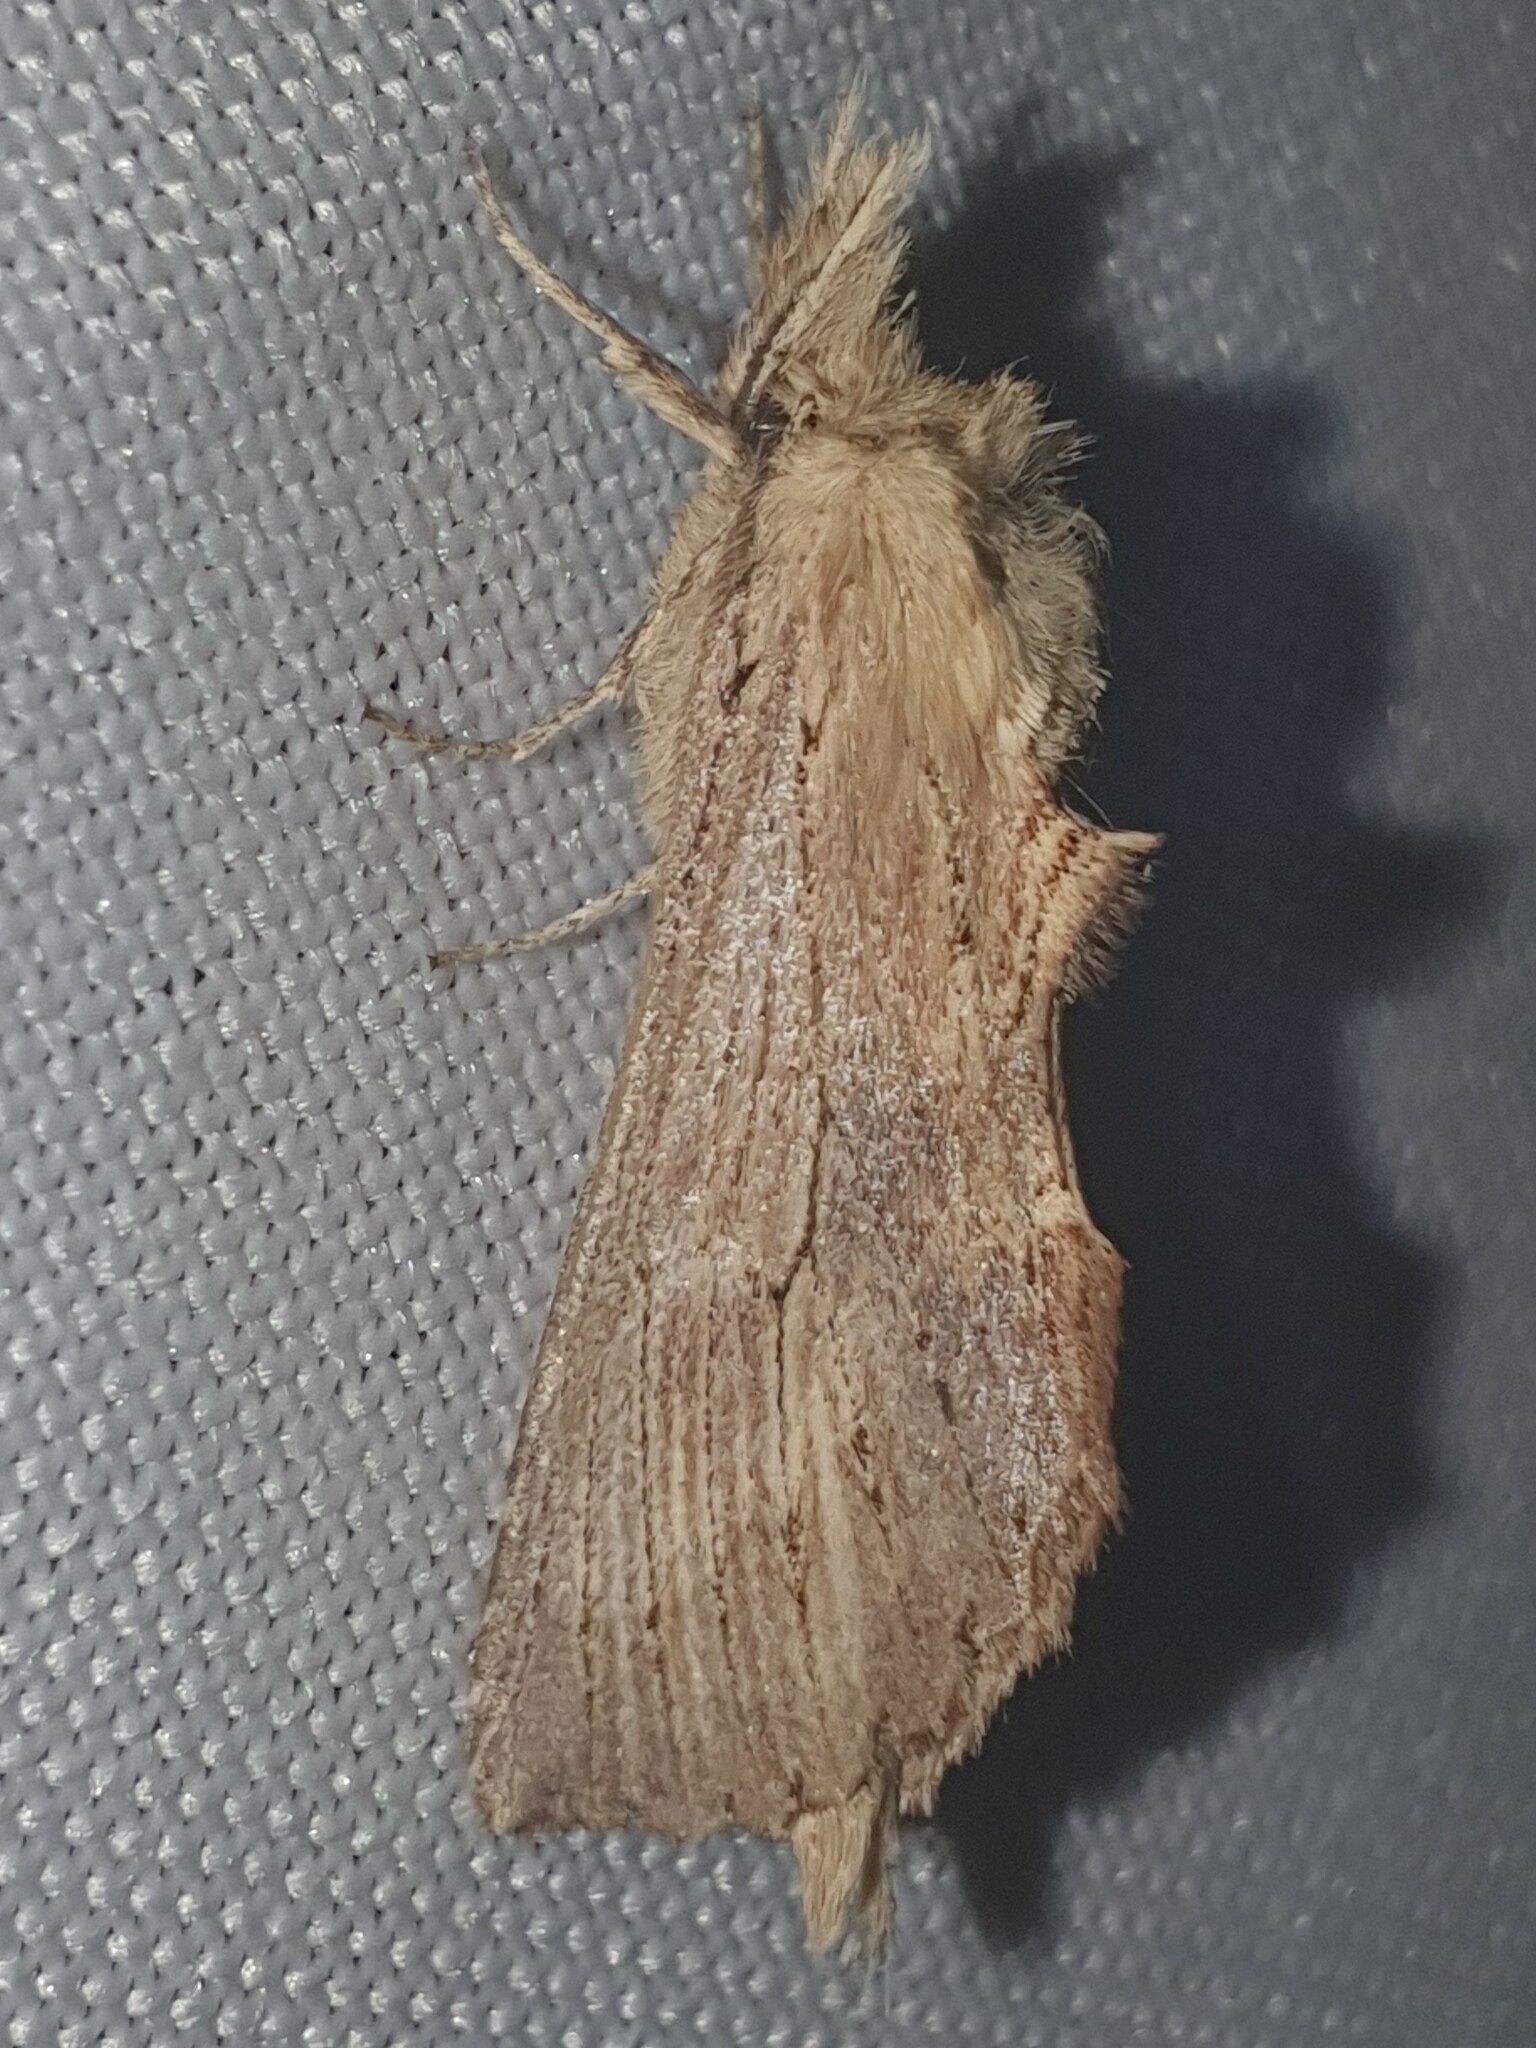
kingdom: Animalia
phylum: Arthropoda
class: Insecta
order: Lepidoptera
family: Notodontidae
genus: Pterostoma
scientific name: Pterostoma palpina
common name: Pale prominent
